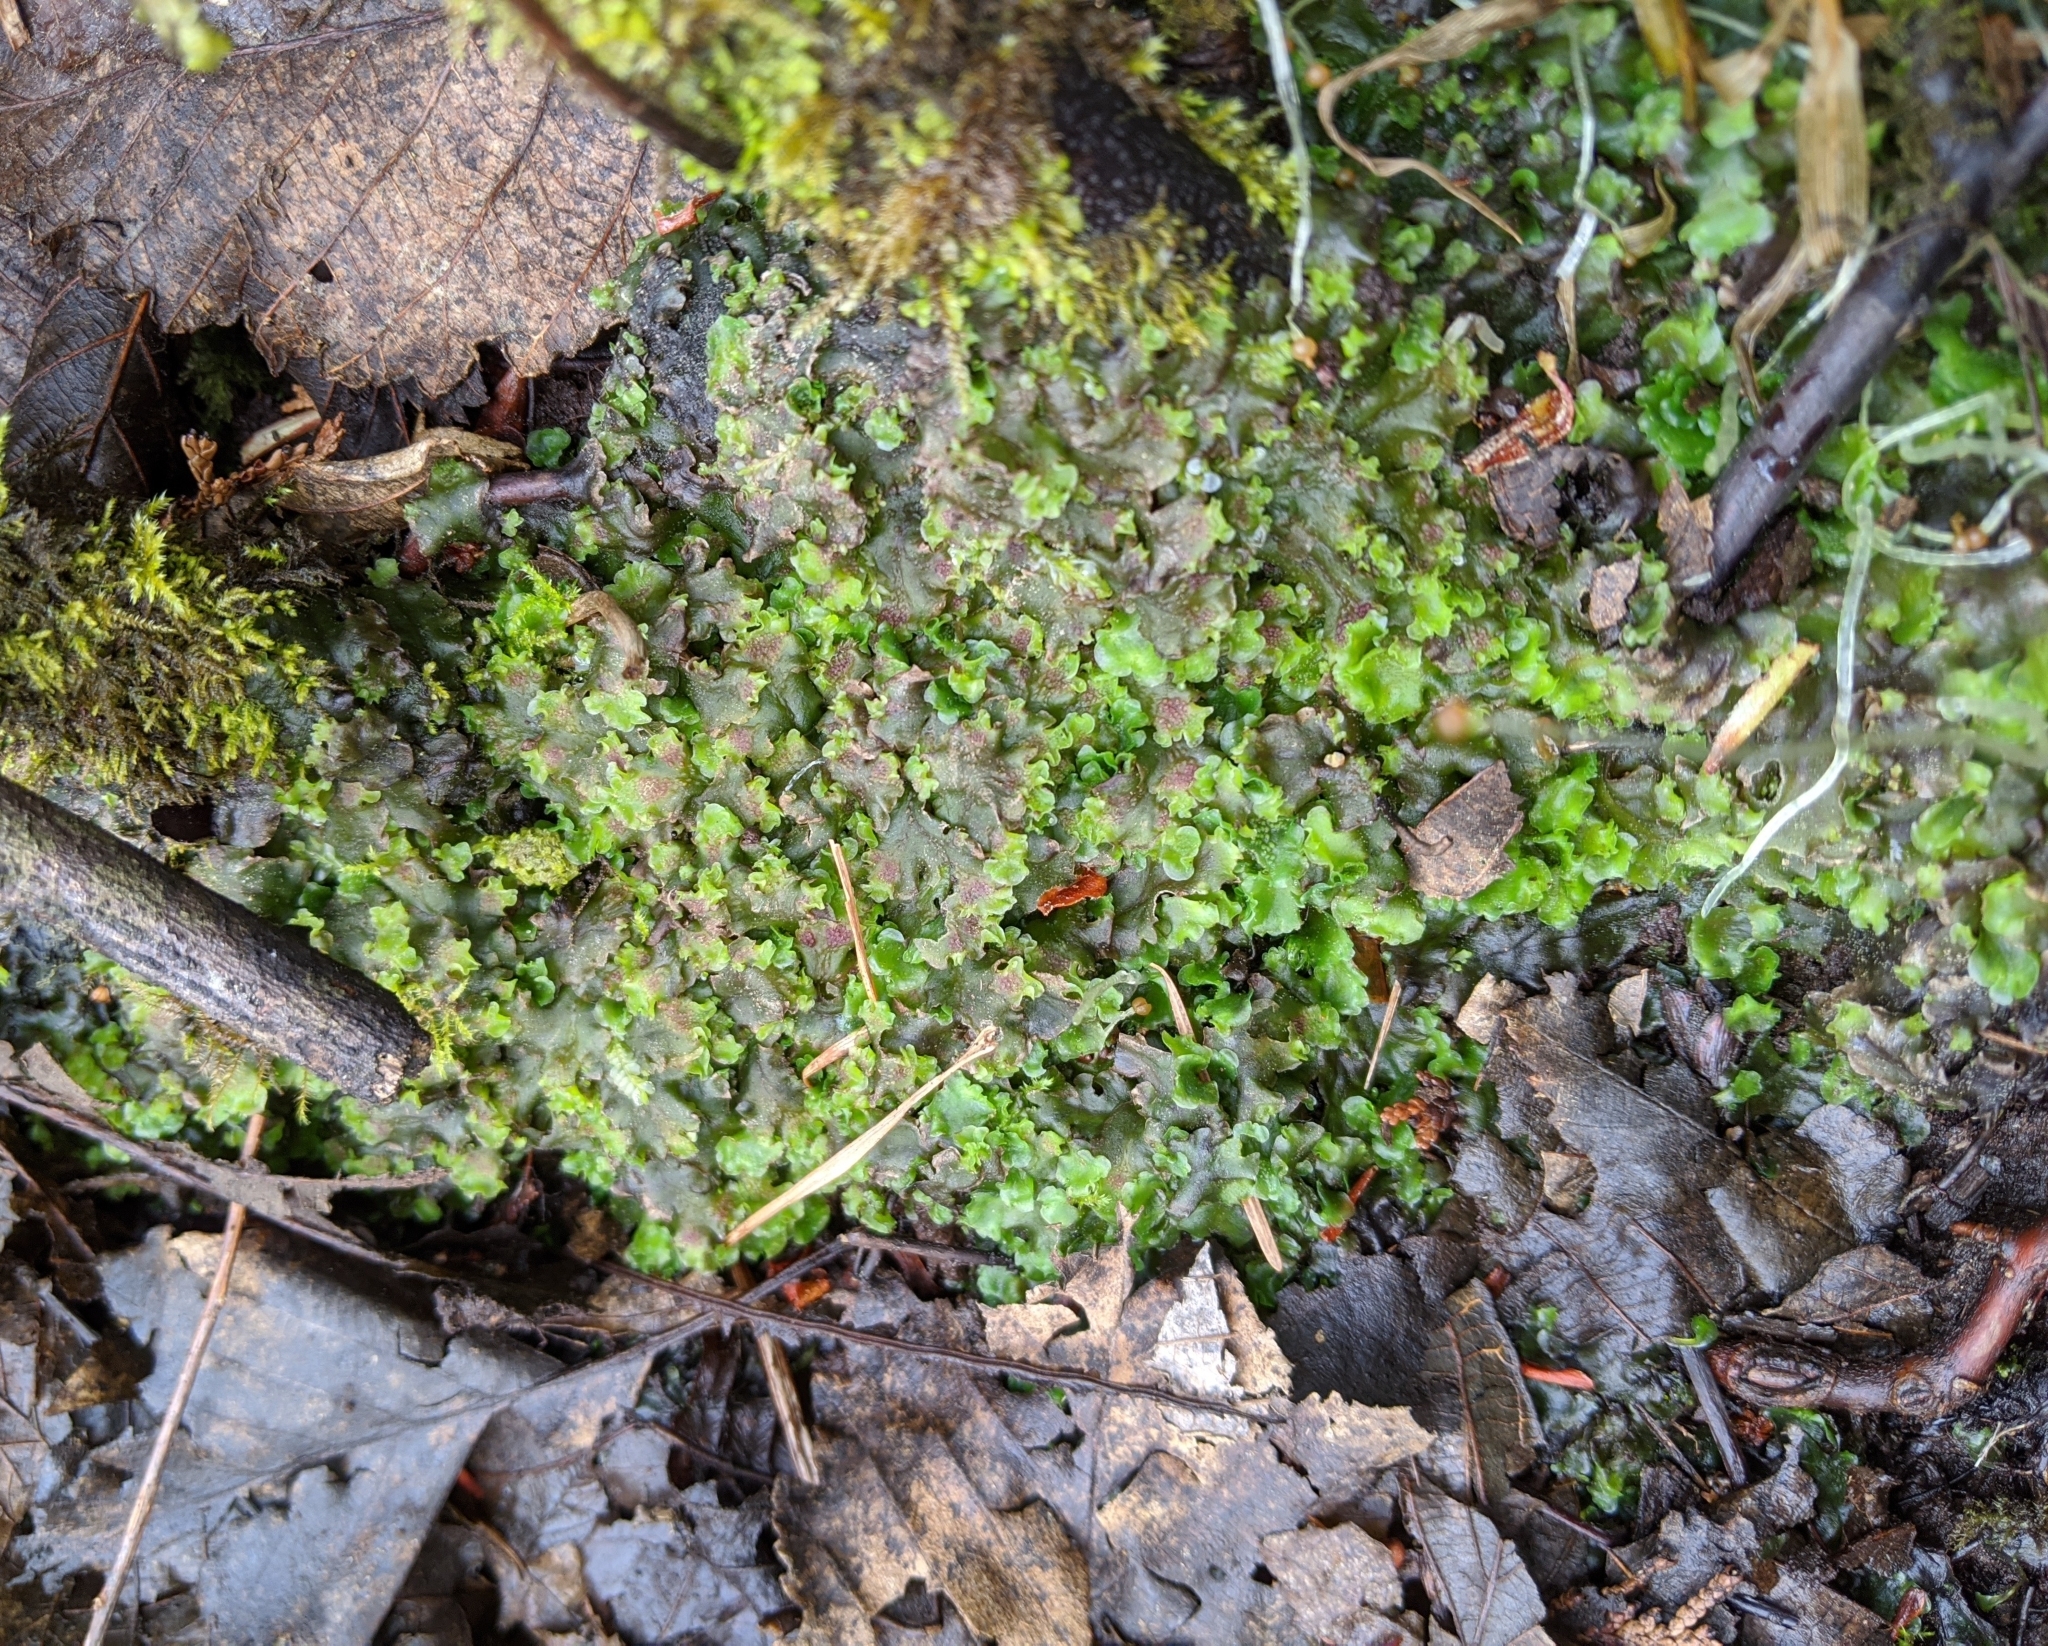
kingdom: Plantae
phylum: Marchantiophyta
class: Jungermanniopsida
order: Pelliales
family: Pelliaceae
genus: Pellia
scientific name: Pellia neesiana
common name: Nees  pellia
